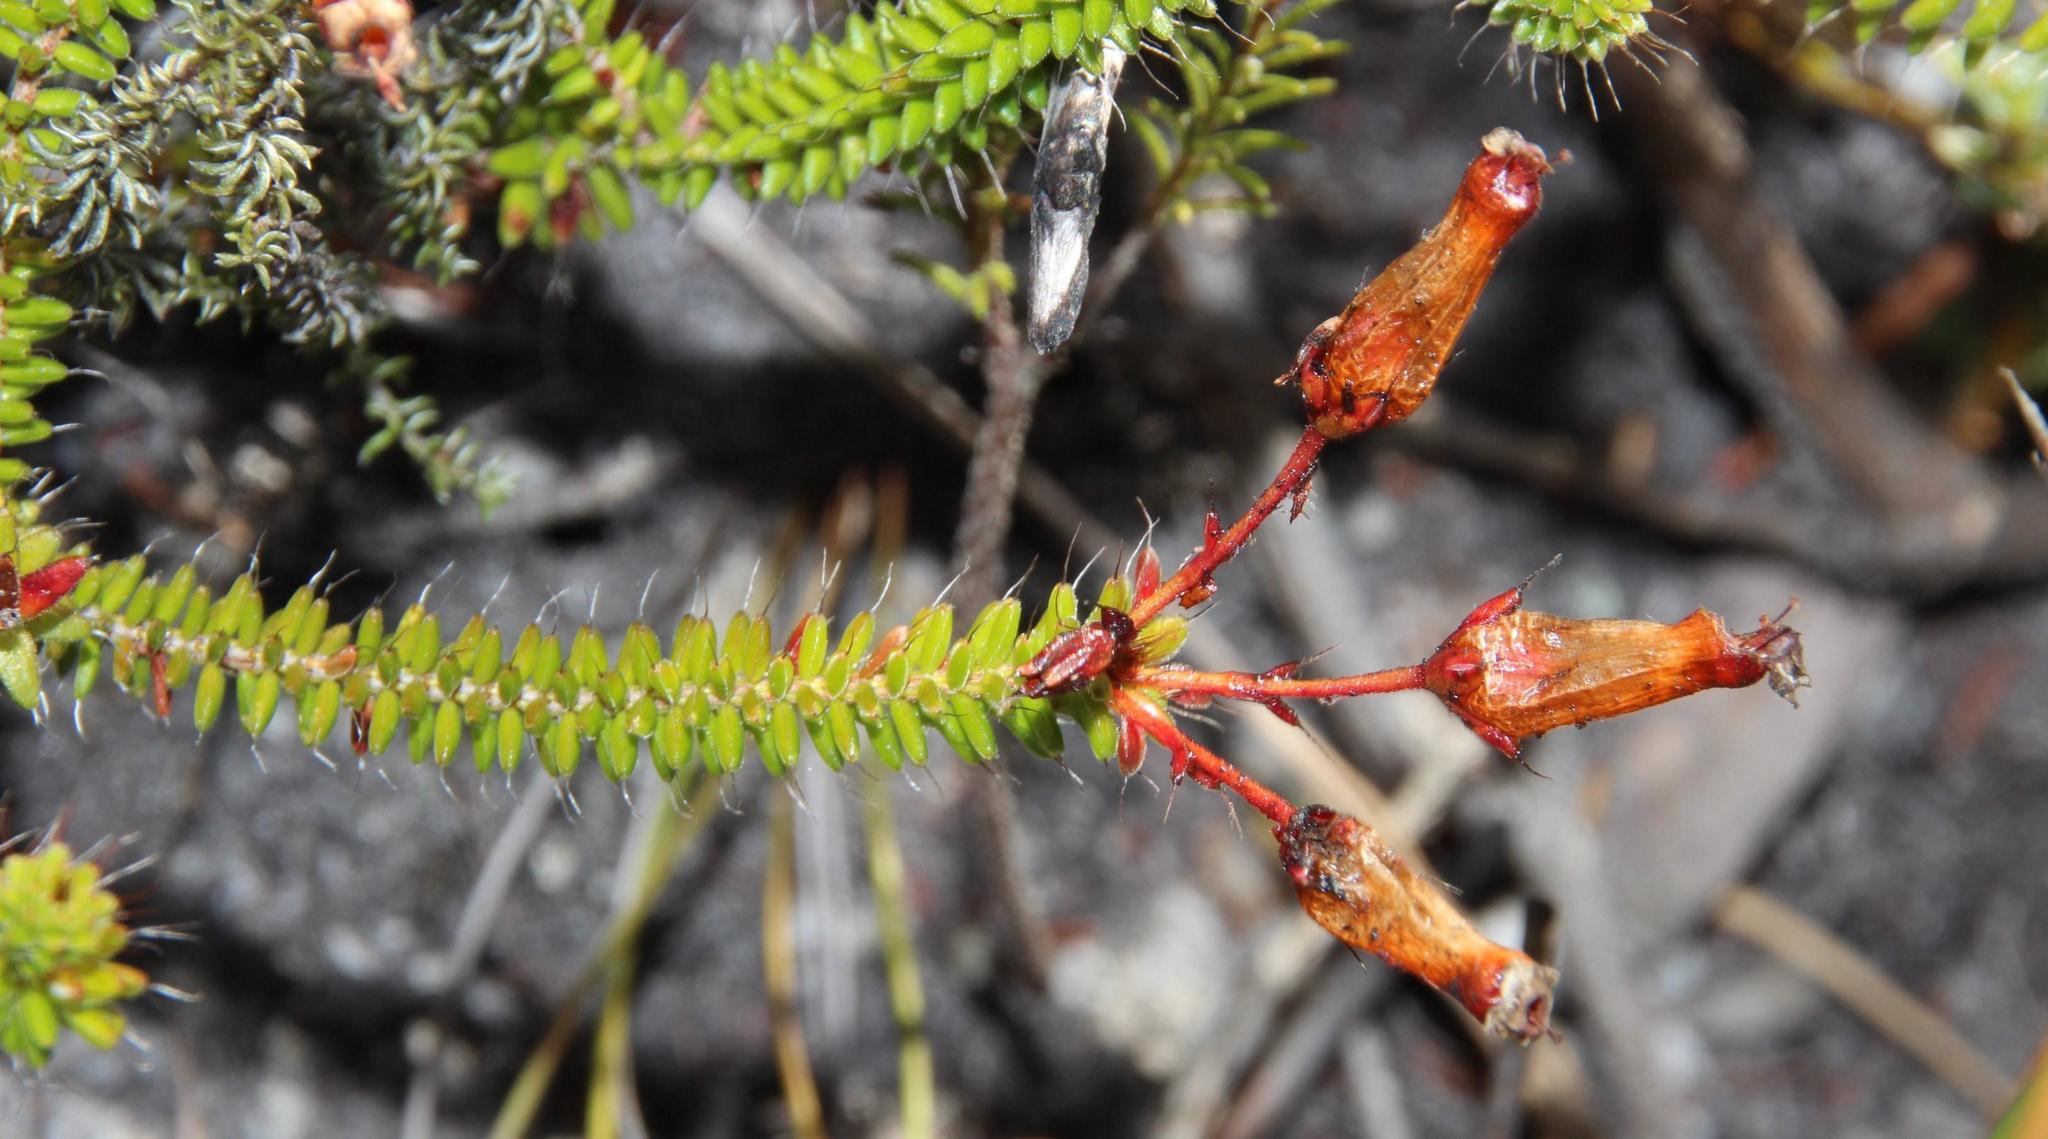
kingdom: Plantae
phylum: Tracheophyta
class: Magnoliopsida
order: Ericales
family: Ericaceae
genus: Erica
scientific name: Erica retorta
